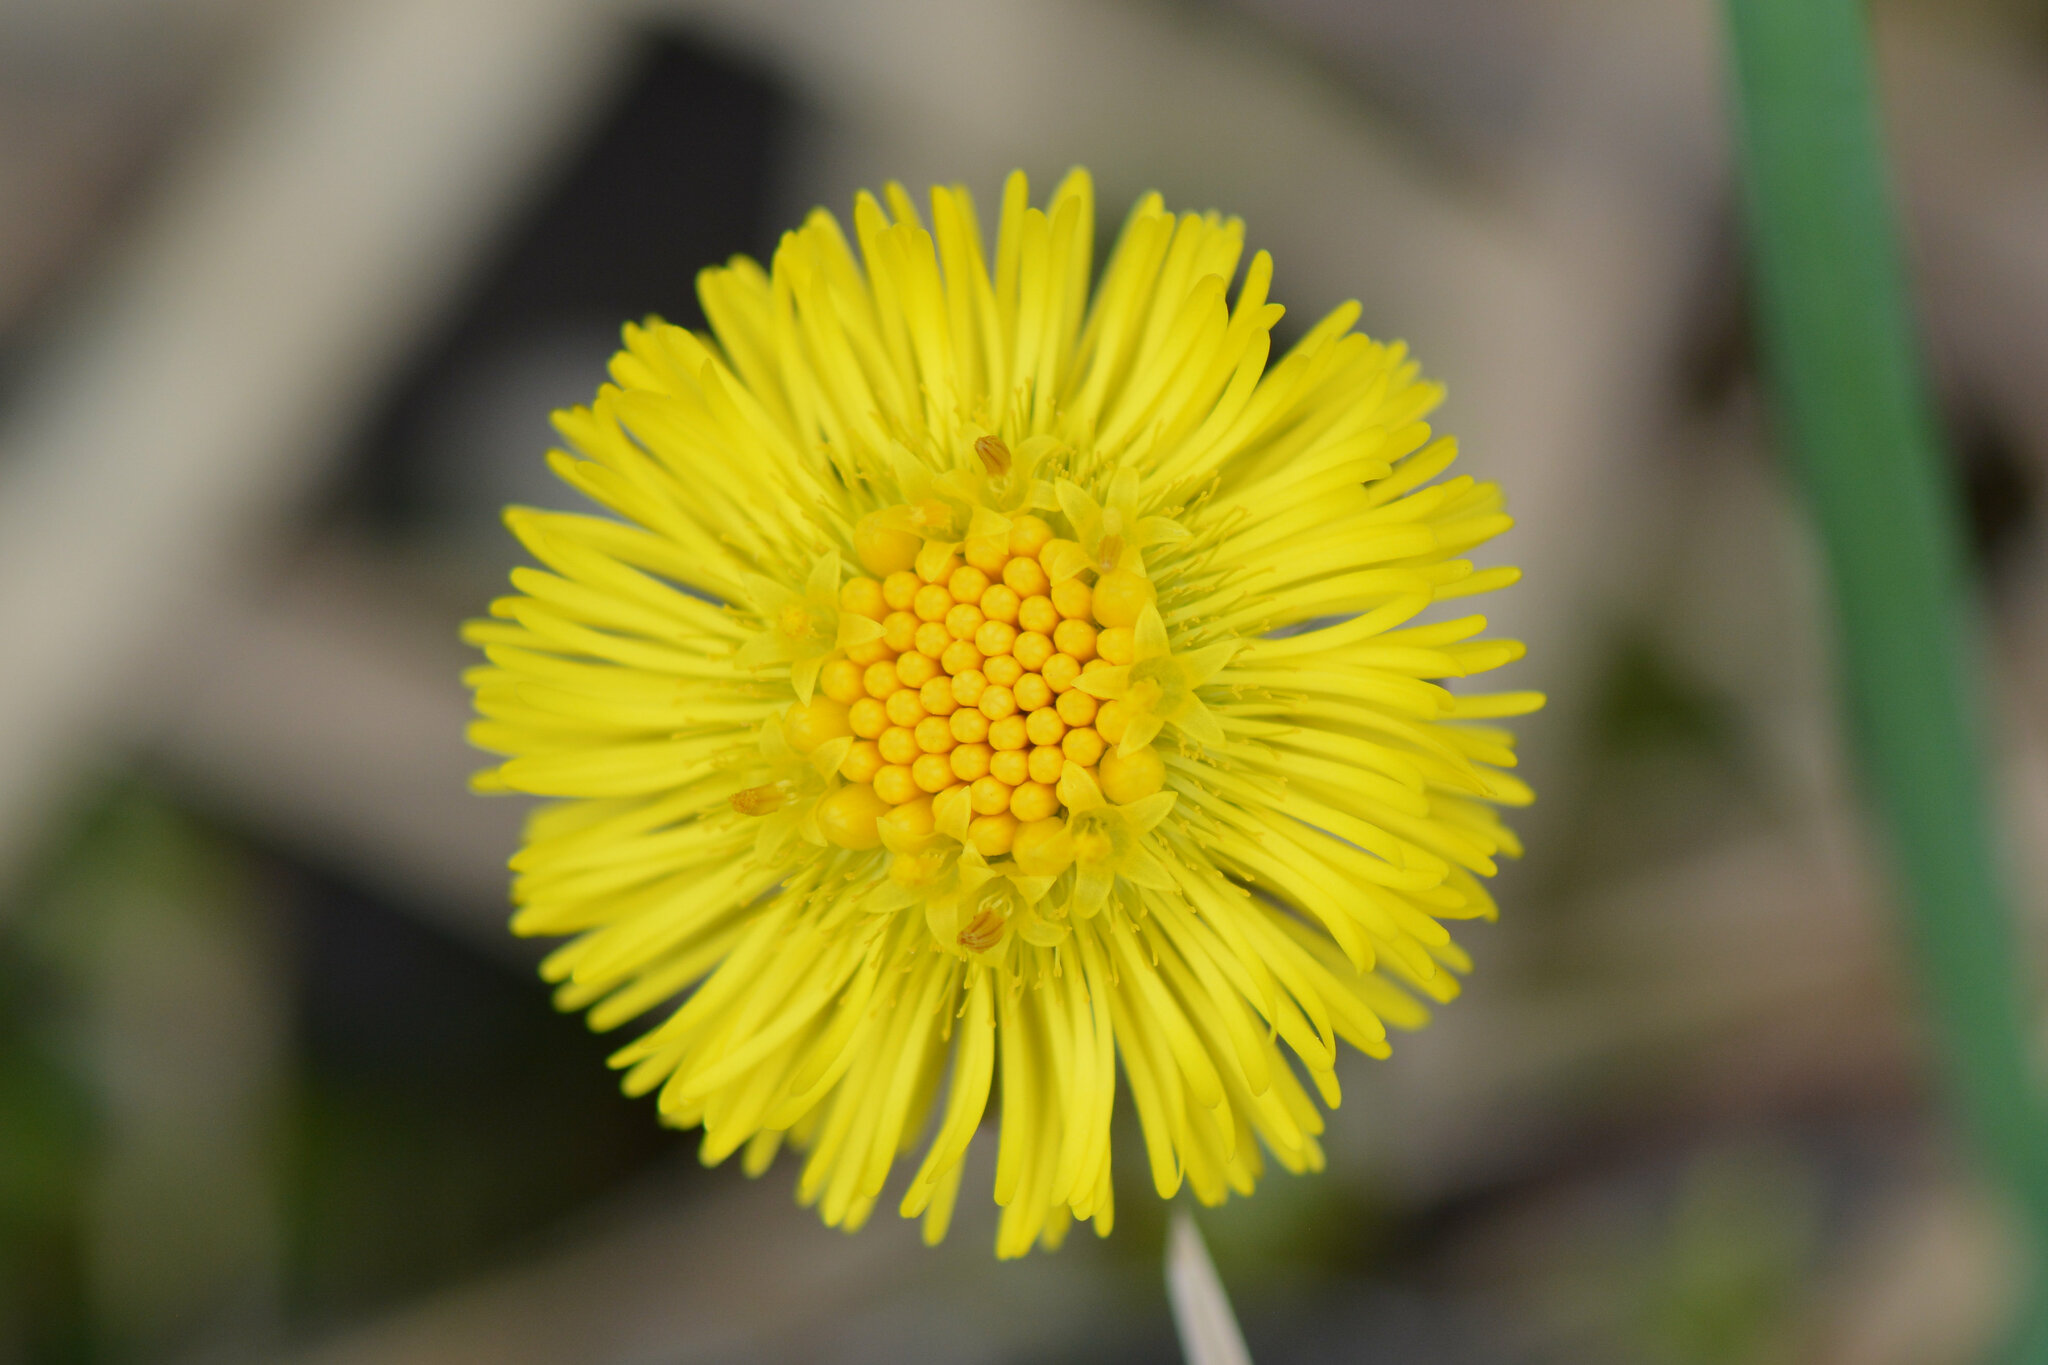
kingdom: Plantae
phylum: Tracheophyta
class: Magnoliopsida
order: Asterales
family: Asteraceae
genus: Tussilago
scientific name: Tussilago farfara
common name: Coltsfoot
